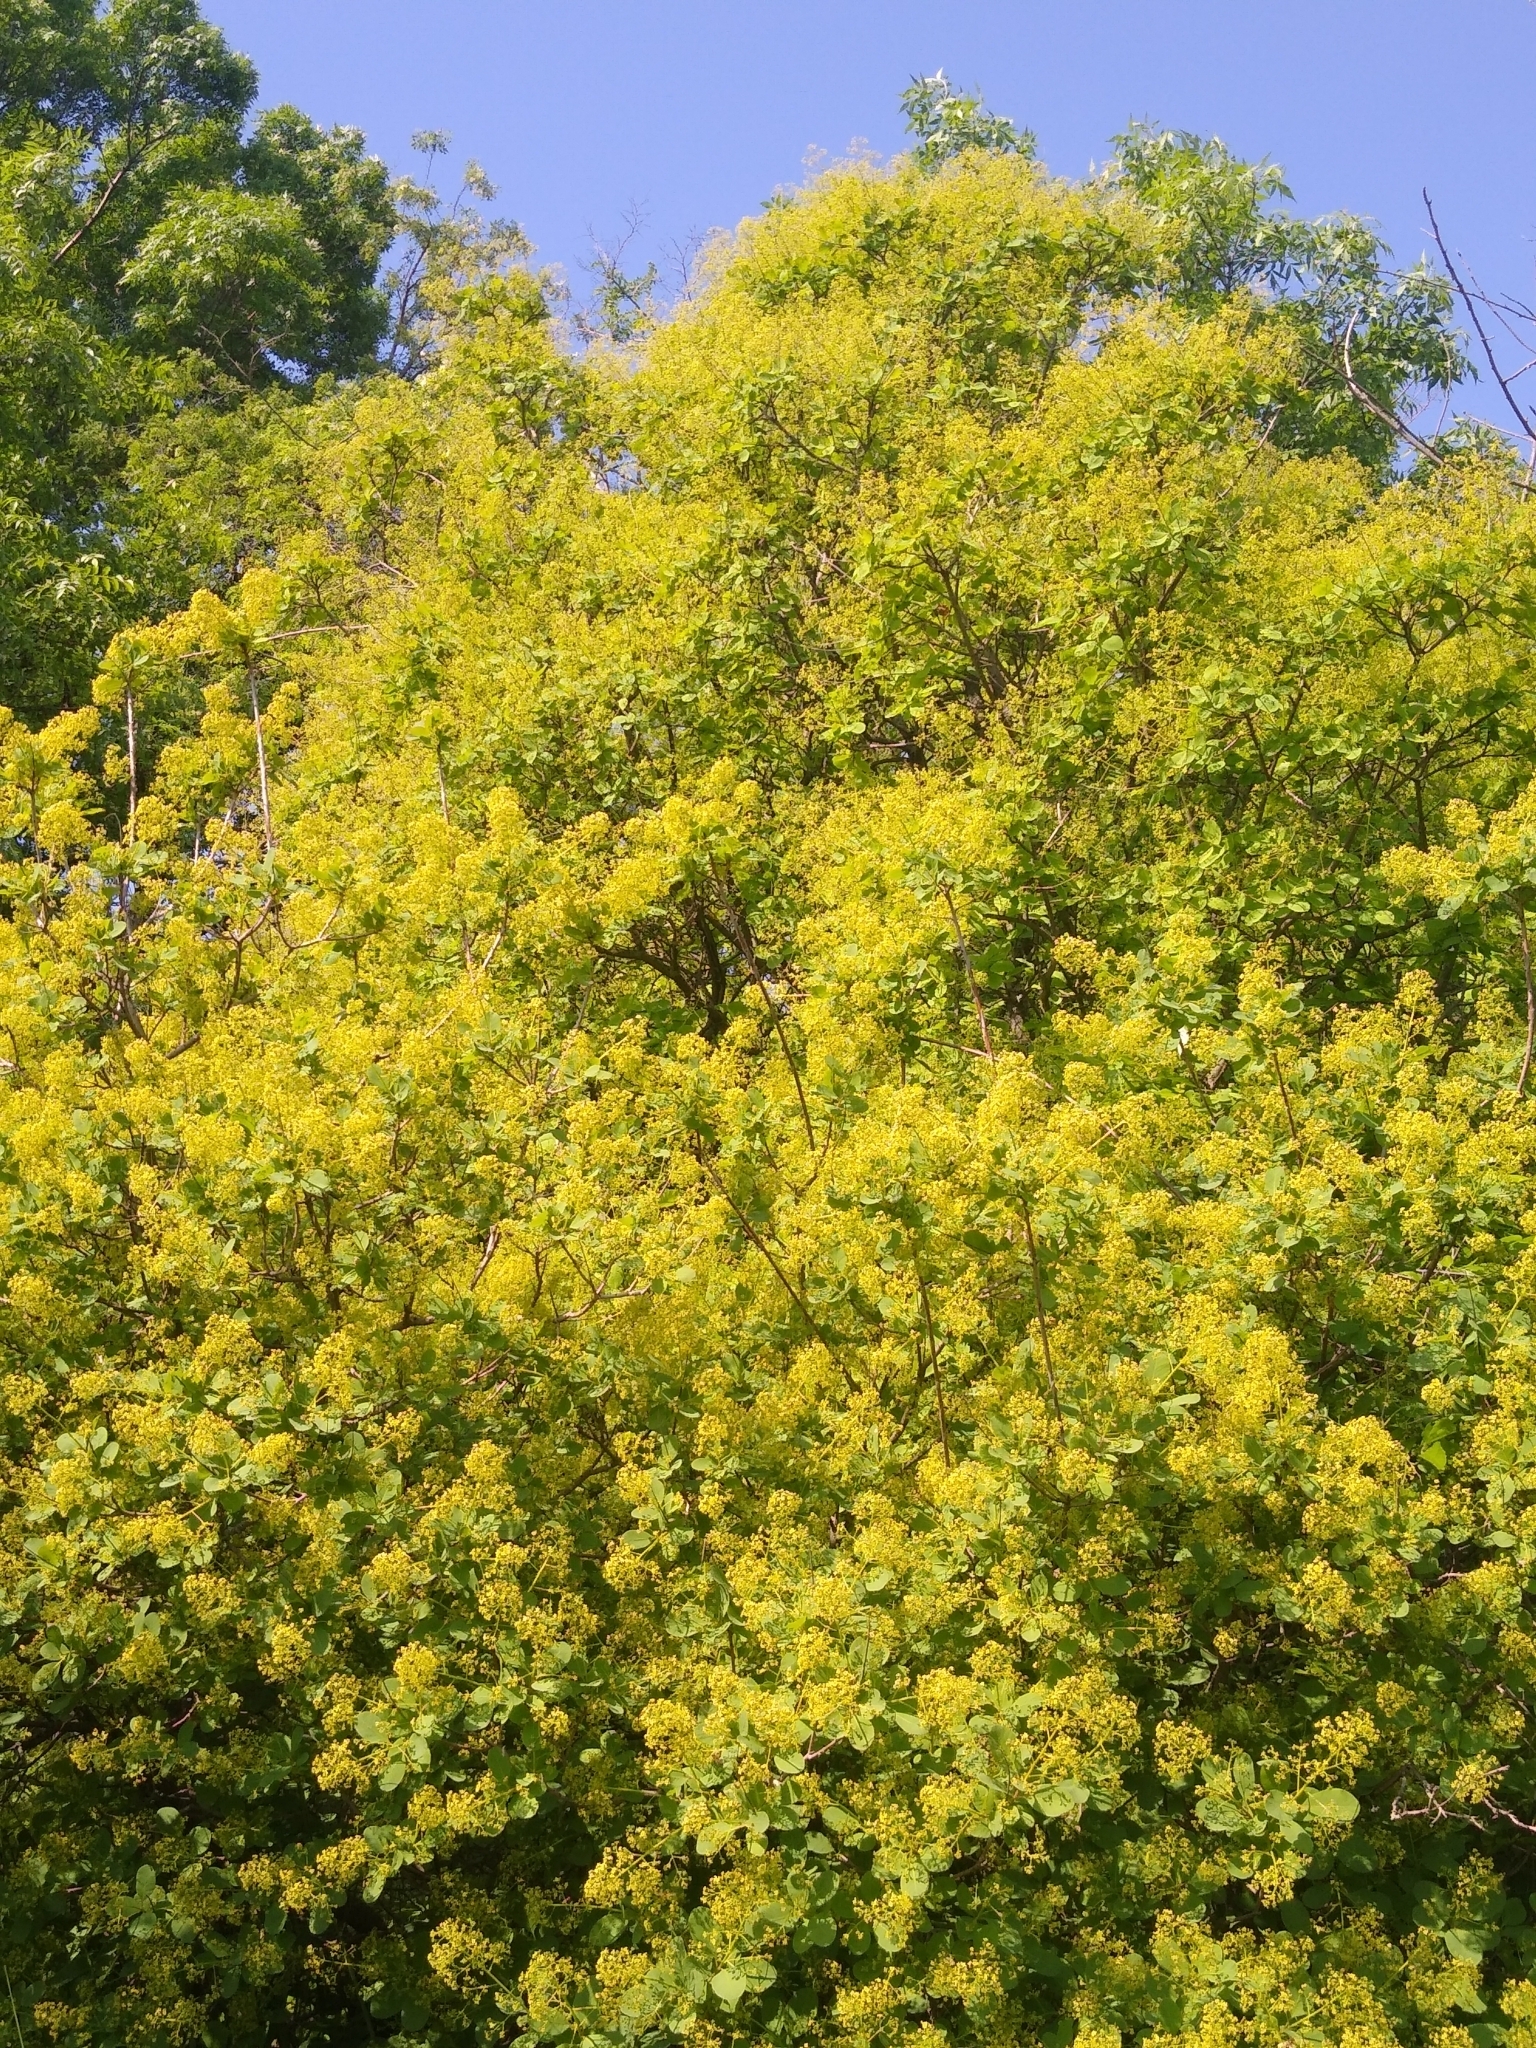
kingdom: Plantae
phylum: Tracheophyta
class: Magnoliopsida
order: Sapindales
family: Anacardiaceae
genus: Cotinus
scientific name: Cotinus coggygria
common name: Smoke-tree
